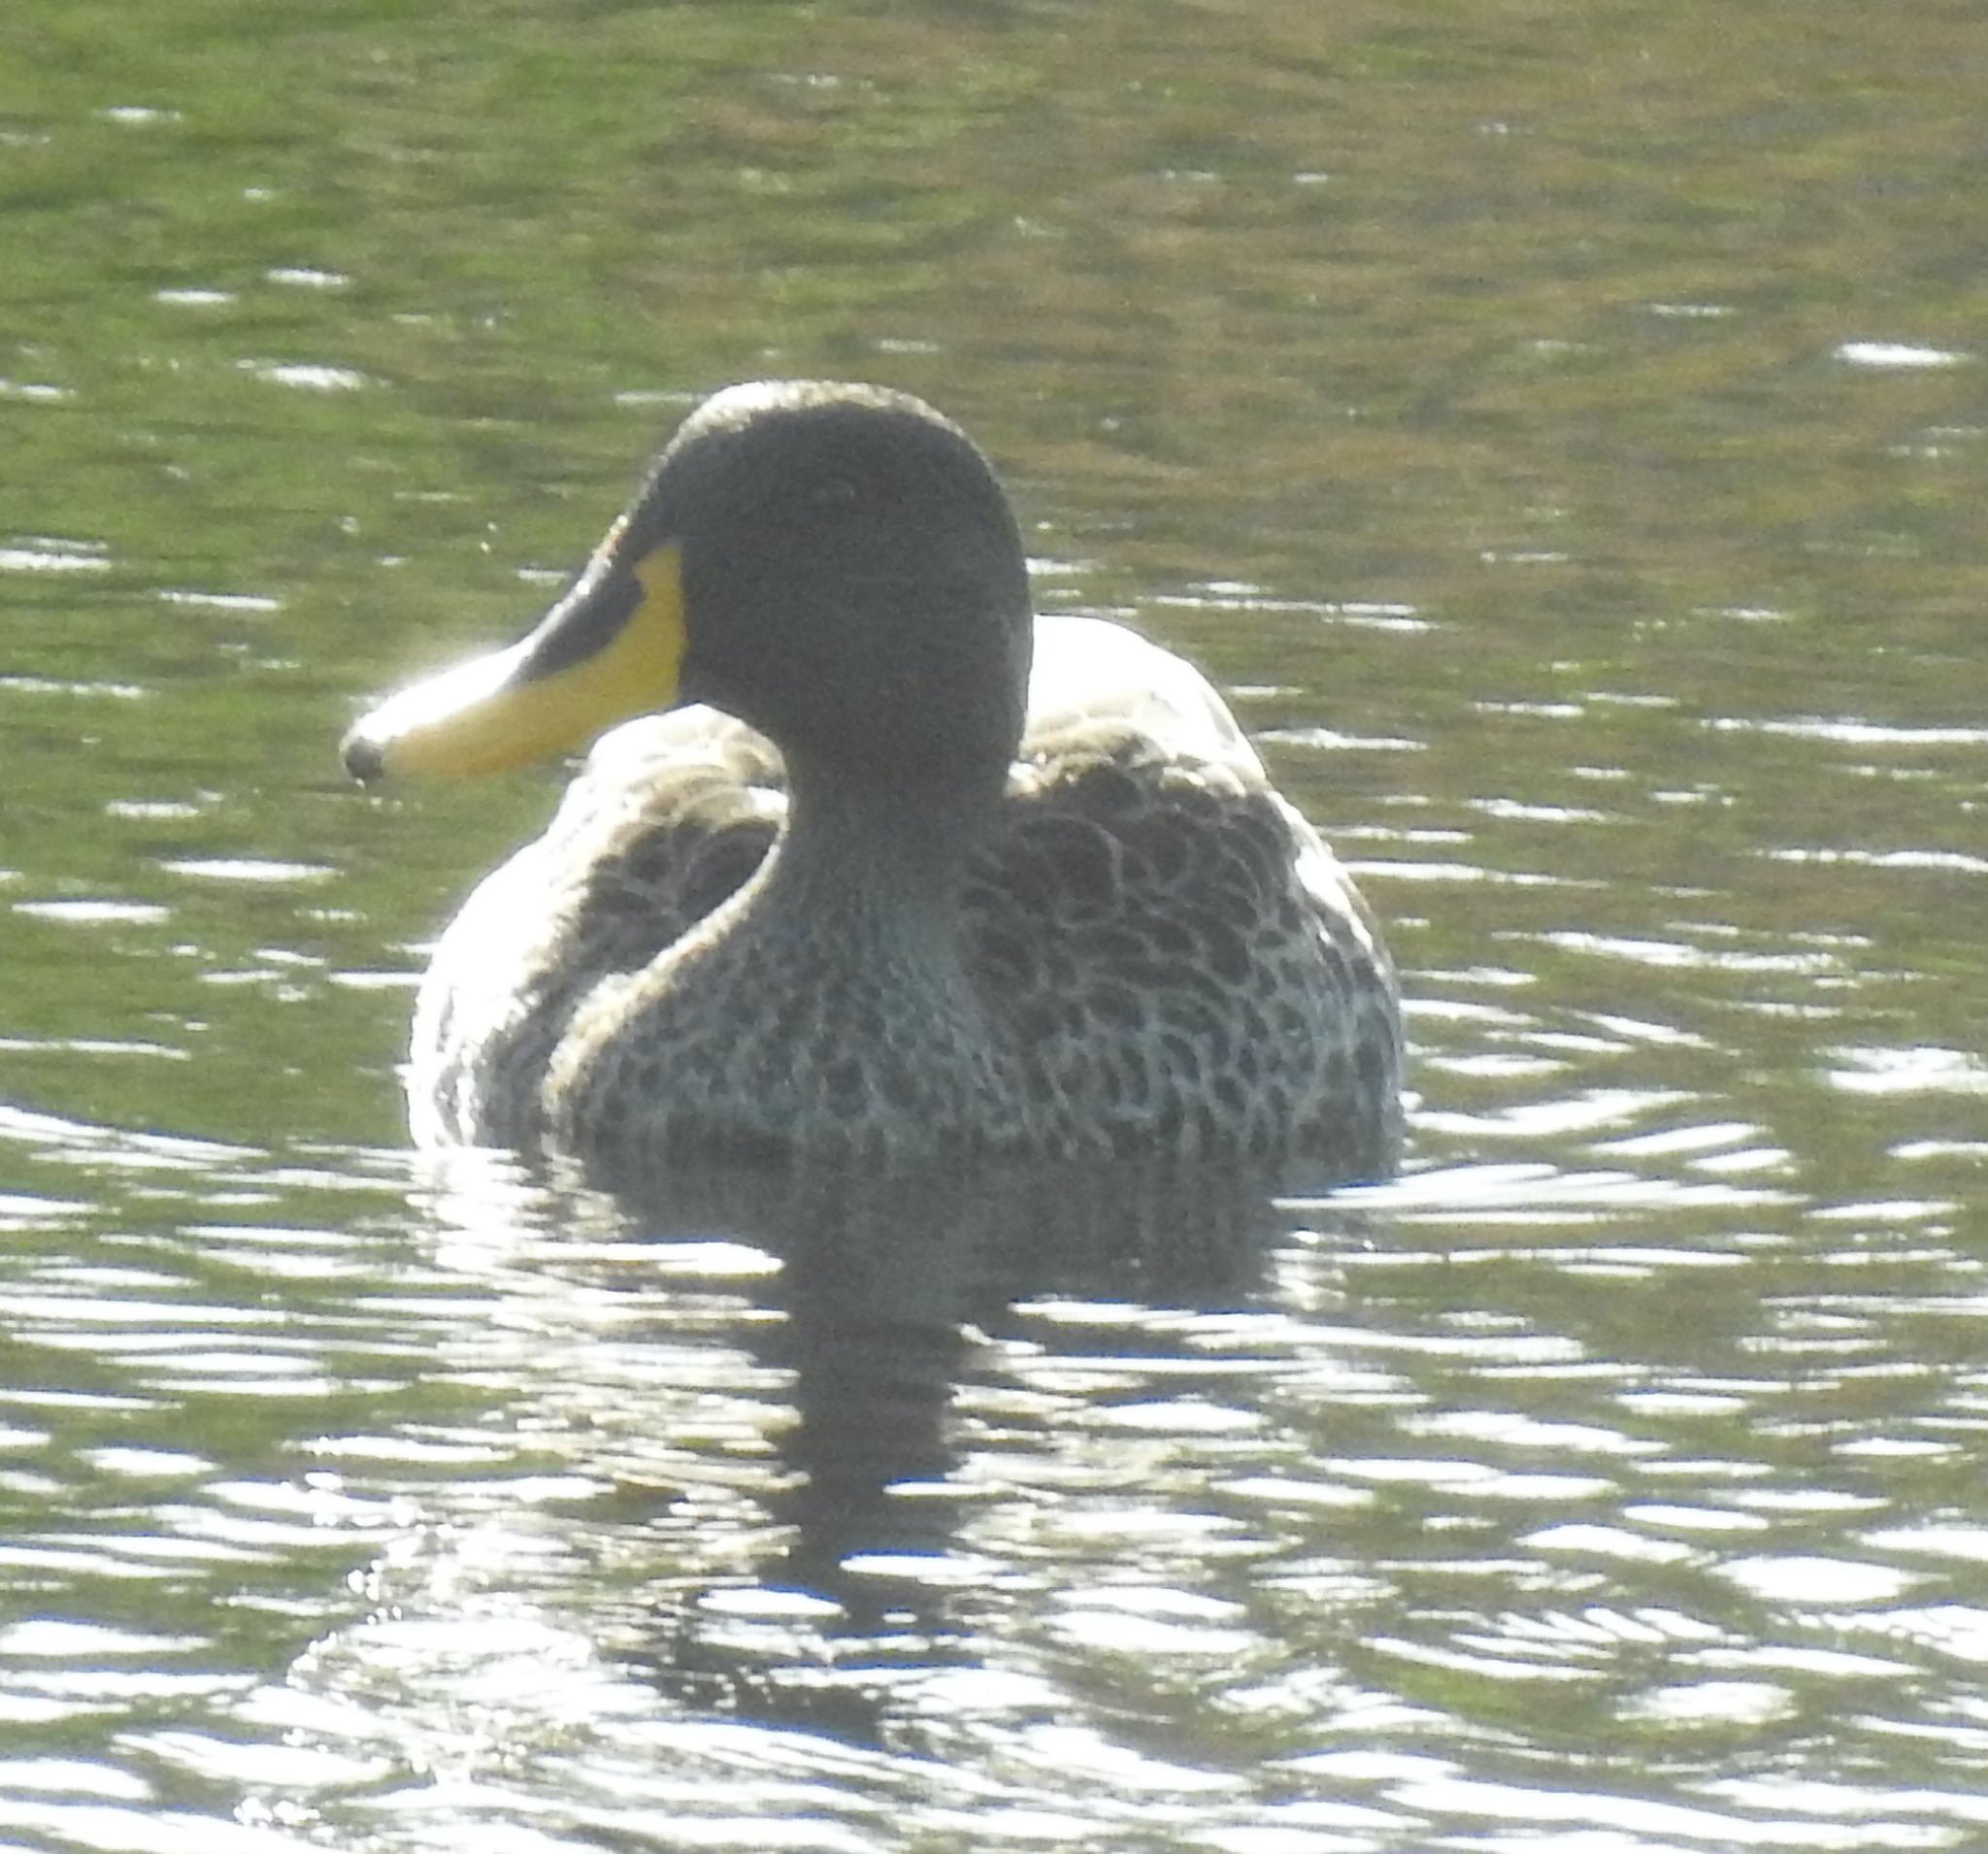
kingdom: Animalia
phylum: Chordata
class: Aves
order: Anseriformes
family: Anatidae
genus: Anas
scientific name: Anas undulata
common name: Yellow-billed duck
